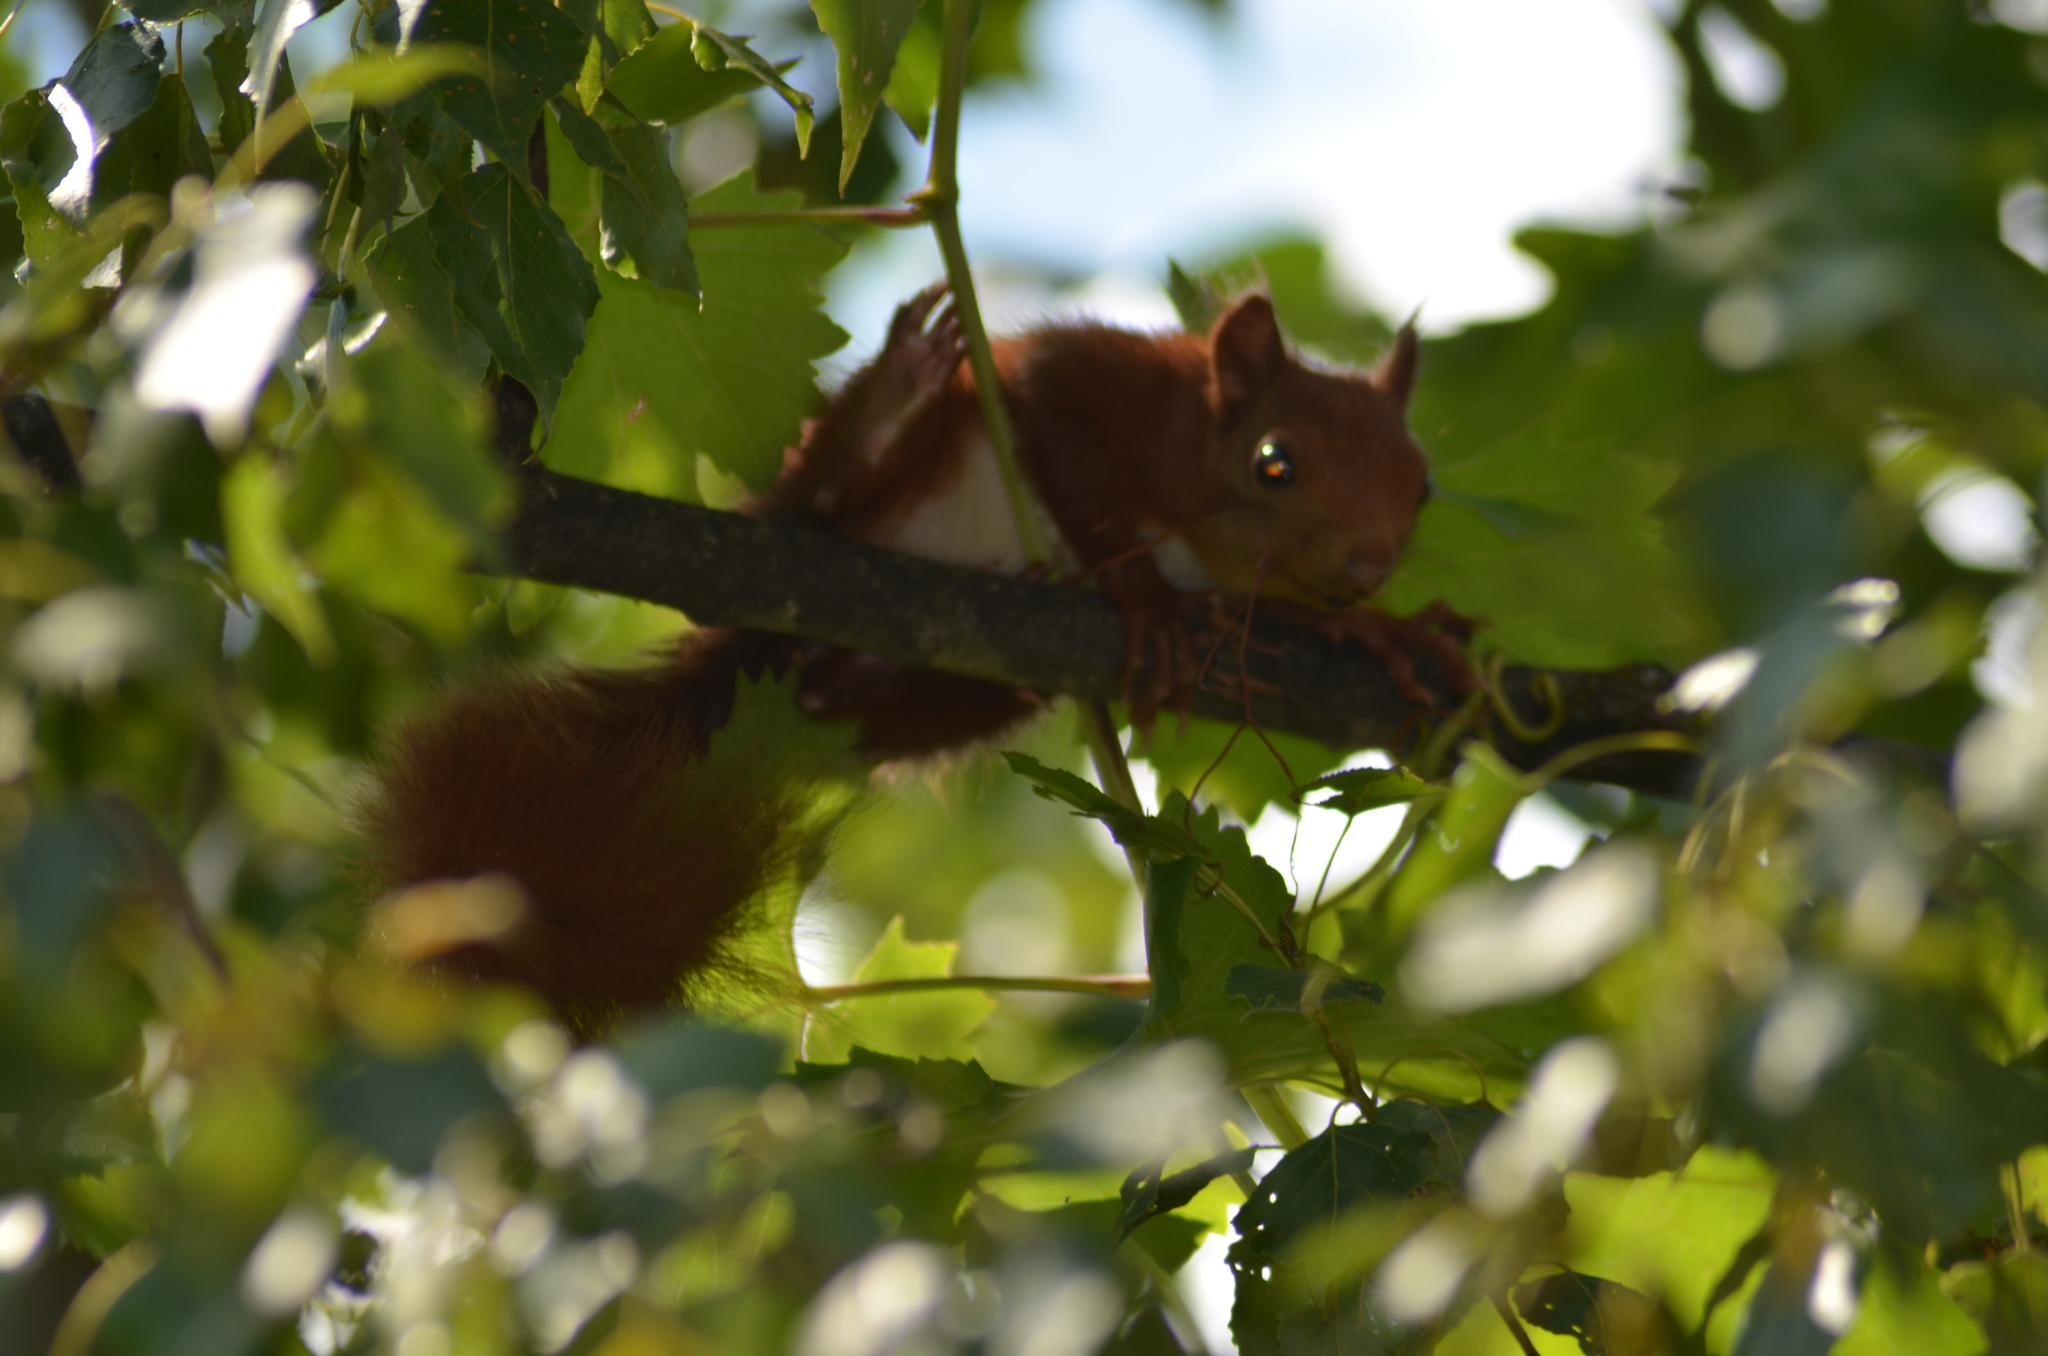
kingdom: Animalia
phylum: Chordata
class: Mammalia
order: Rodentia
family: Sciuridae
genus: Sciurus
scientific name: Sciurus vulgaris
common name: Eurasian red squirrel
